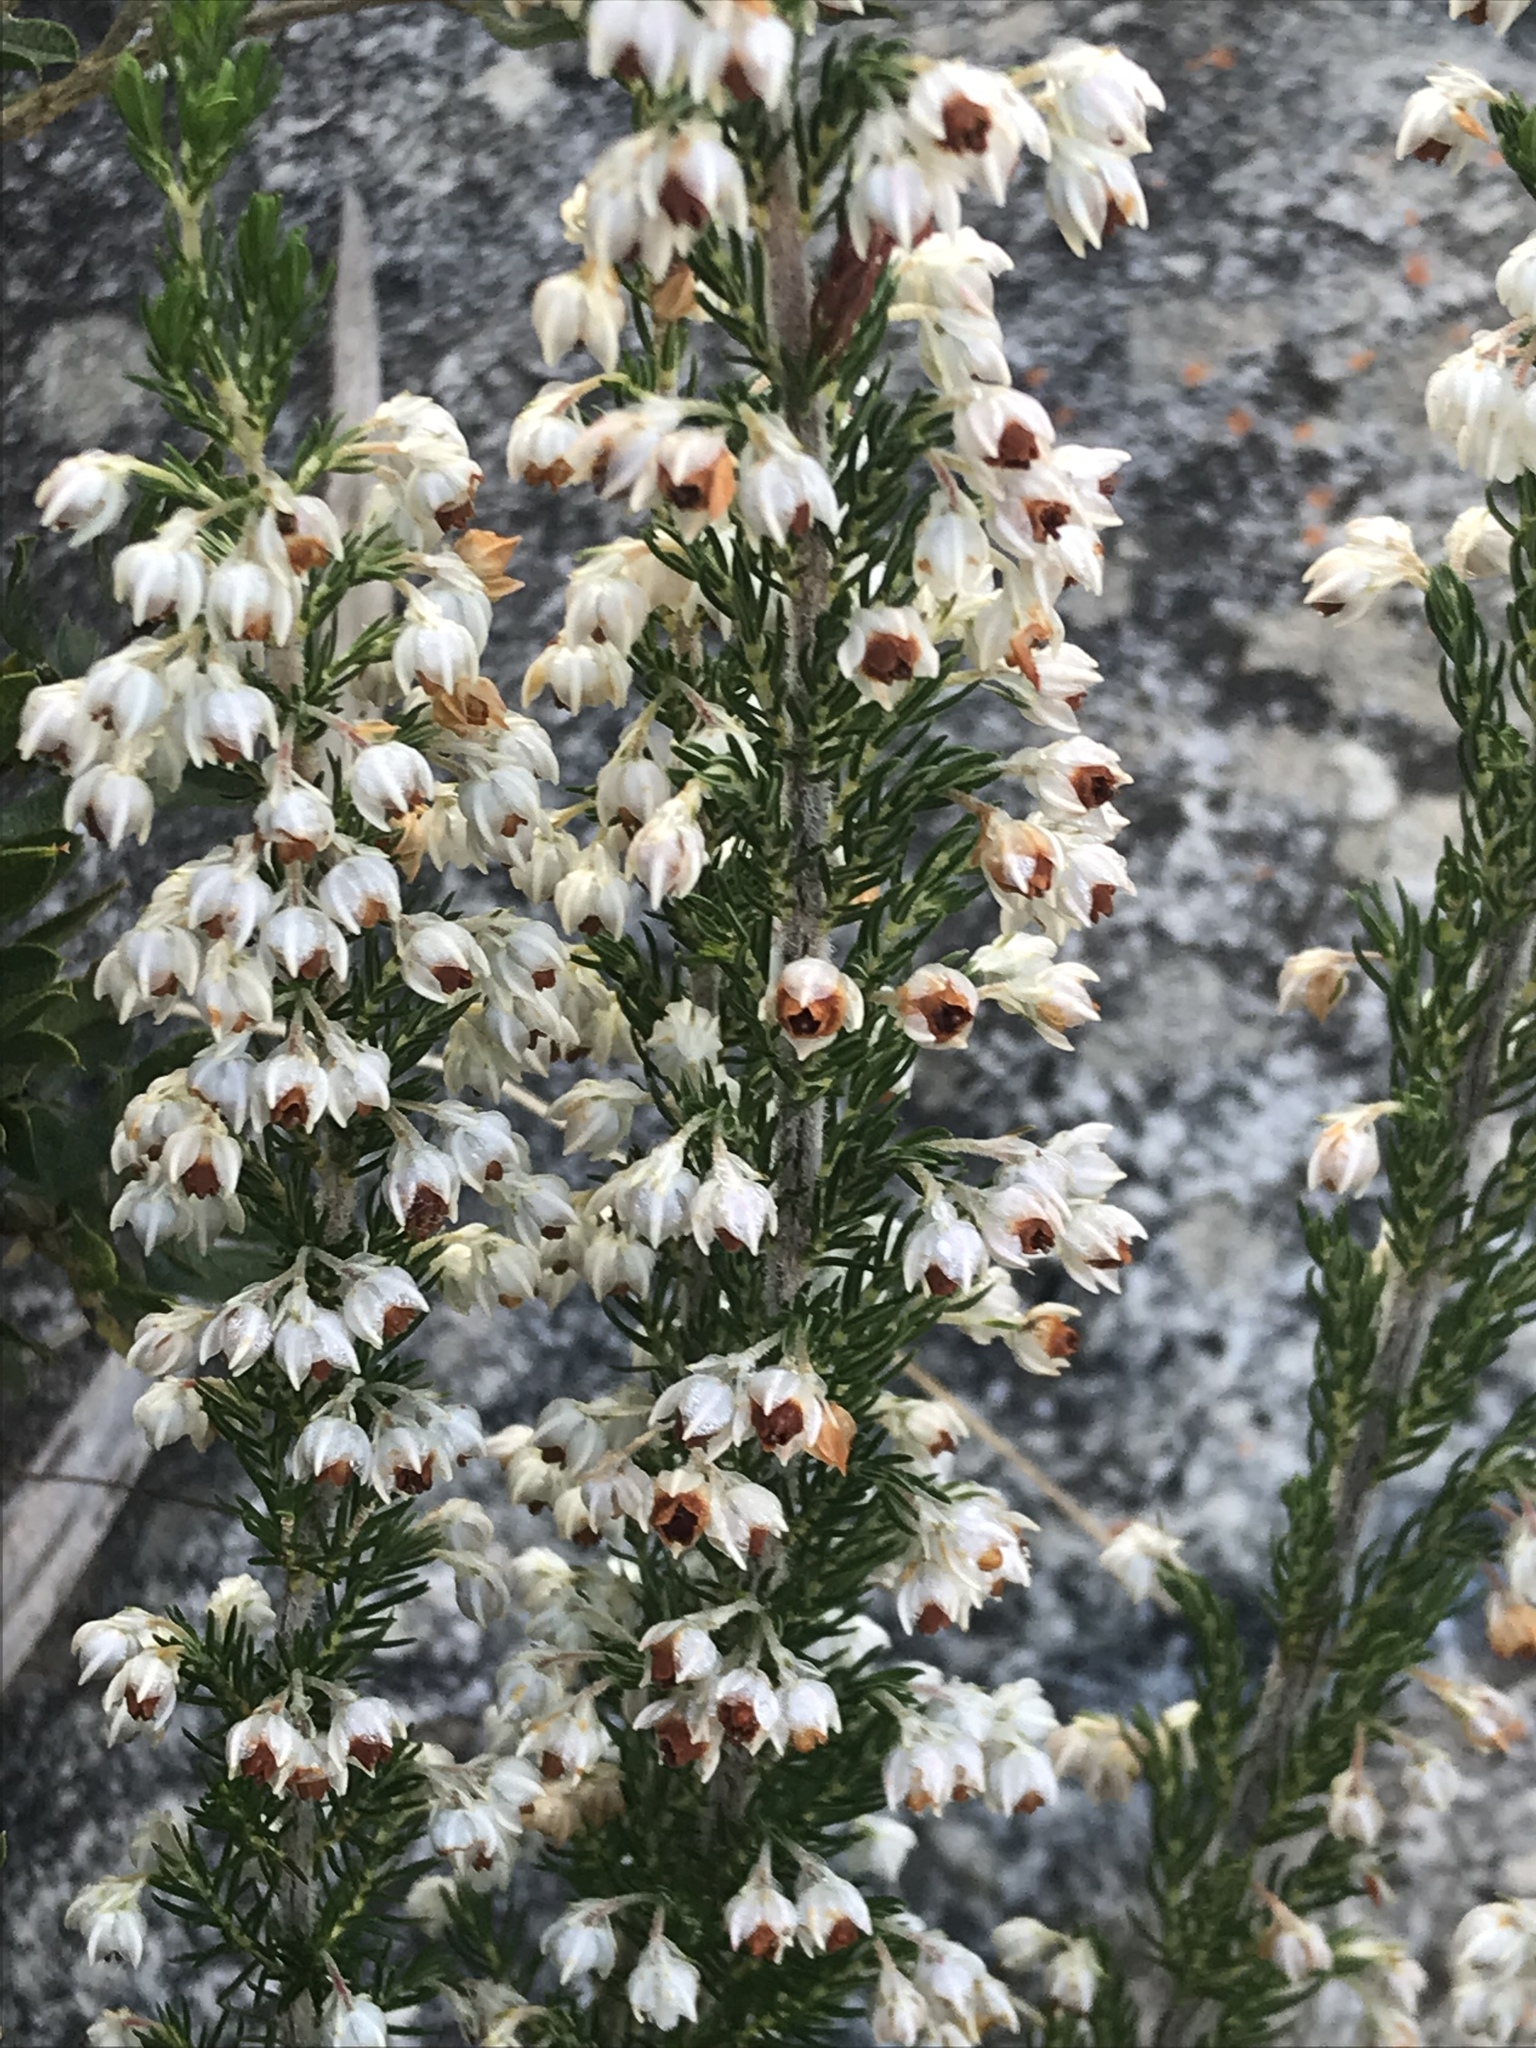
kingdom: Plantae
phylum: Tracheophyta
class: Magnoliopsida
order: Ericales
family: Ericaceae
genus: Erica
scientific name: Erica triflora
